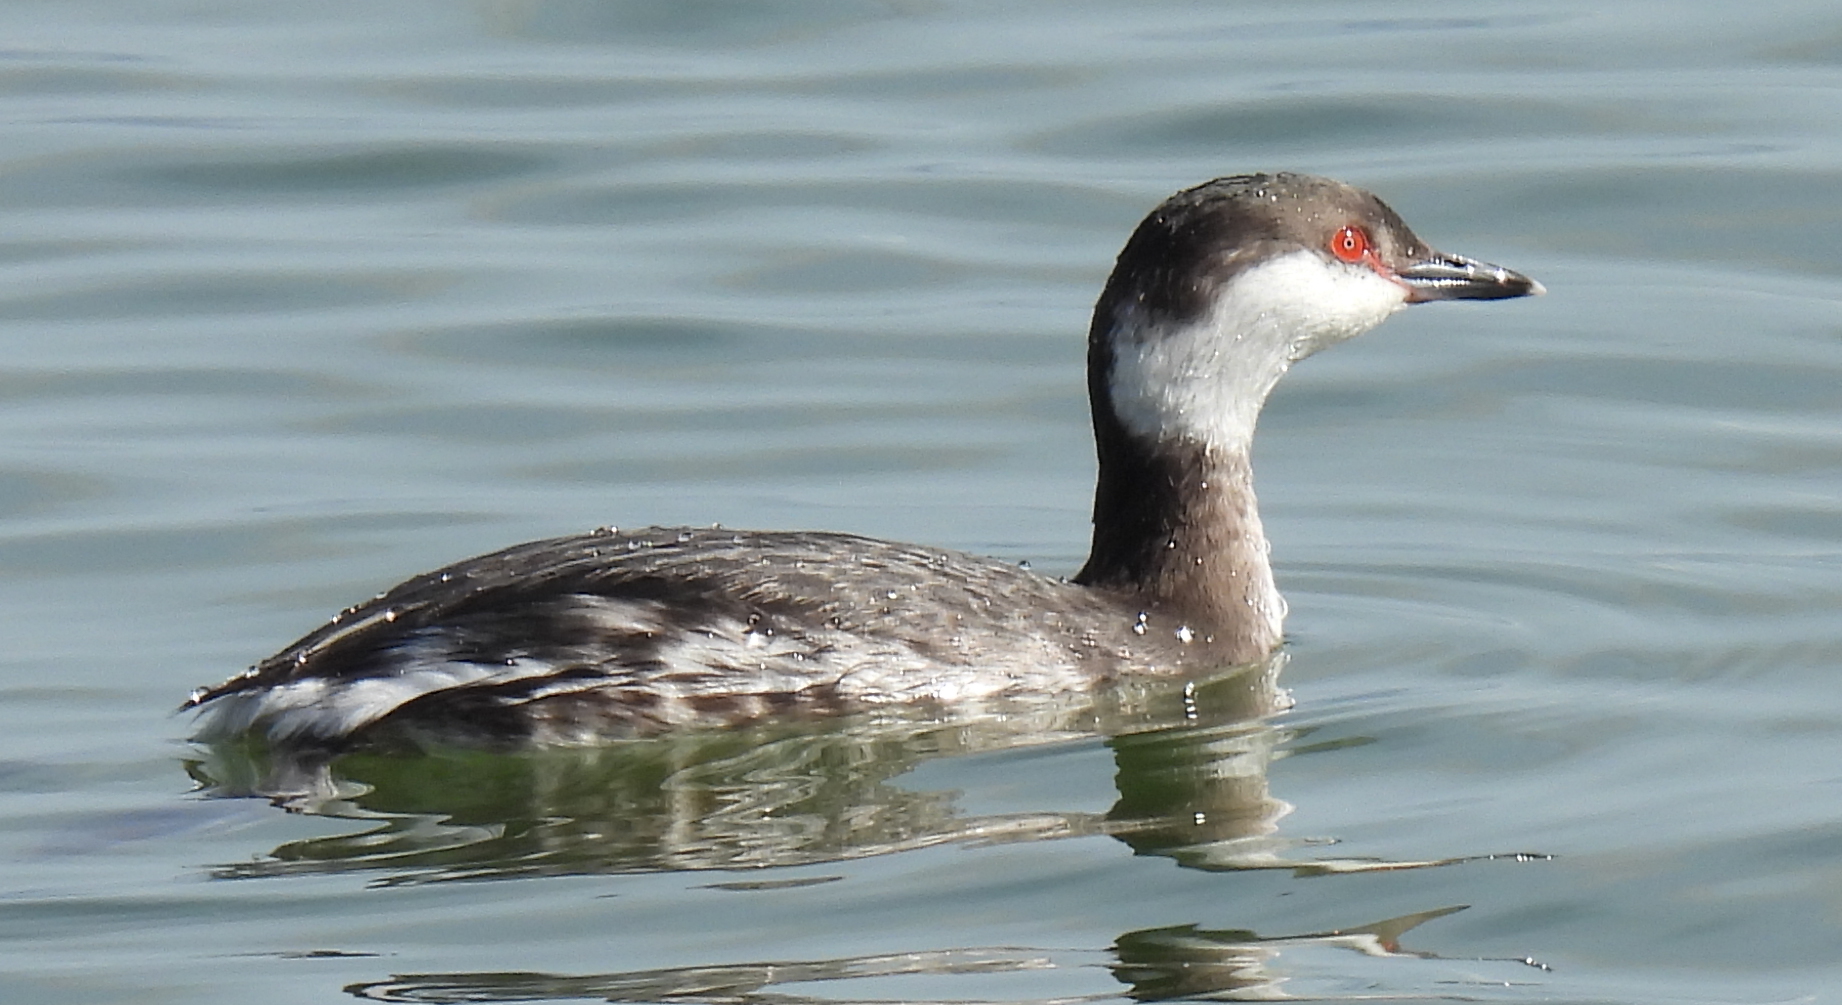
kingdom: Animalia
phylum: Chordata
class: Aves
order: Podicipediformes
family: Podicipedidae
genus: Podiceps
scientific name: Podiceps auritus
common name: Horned grebe
